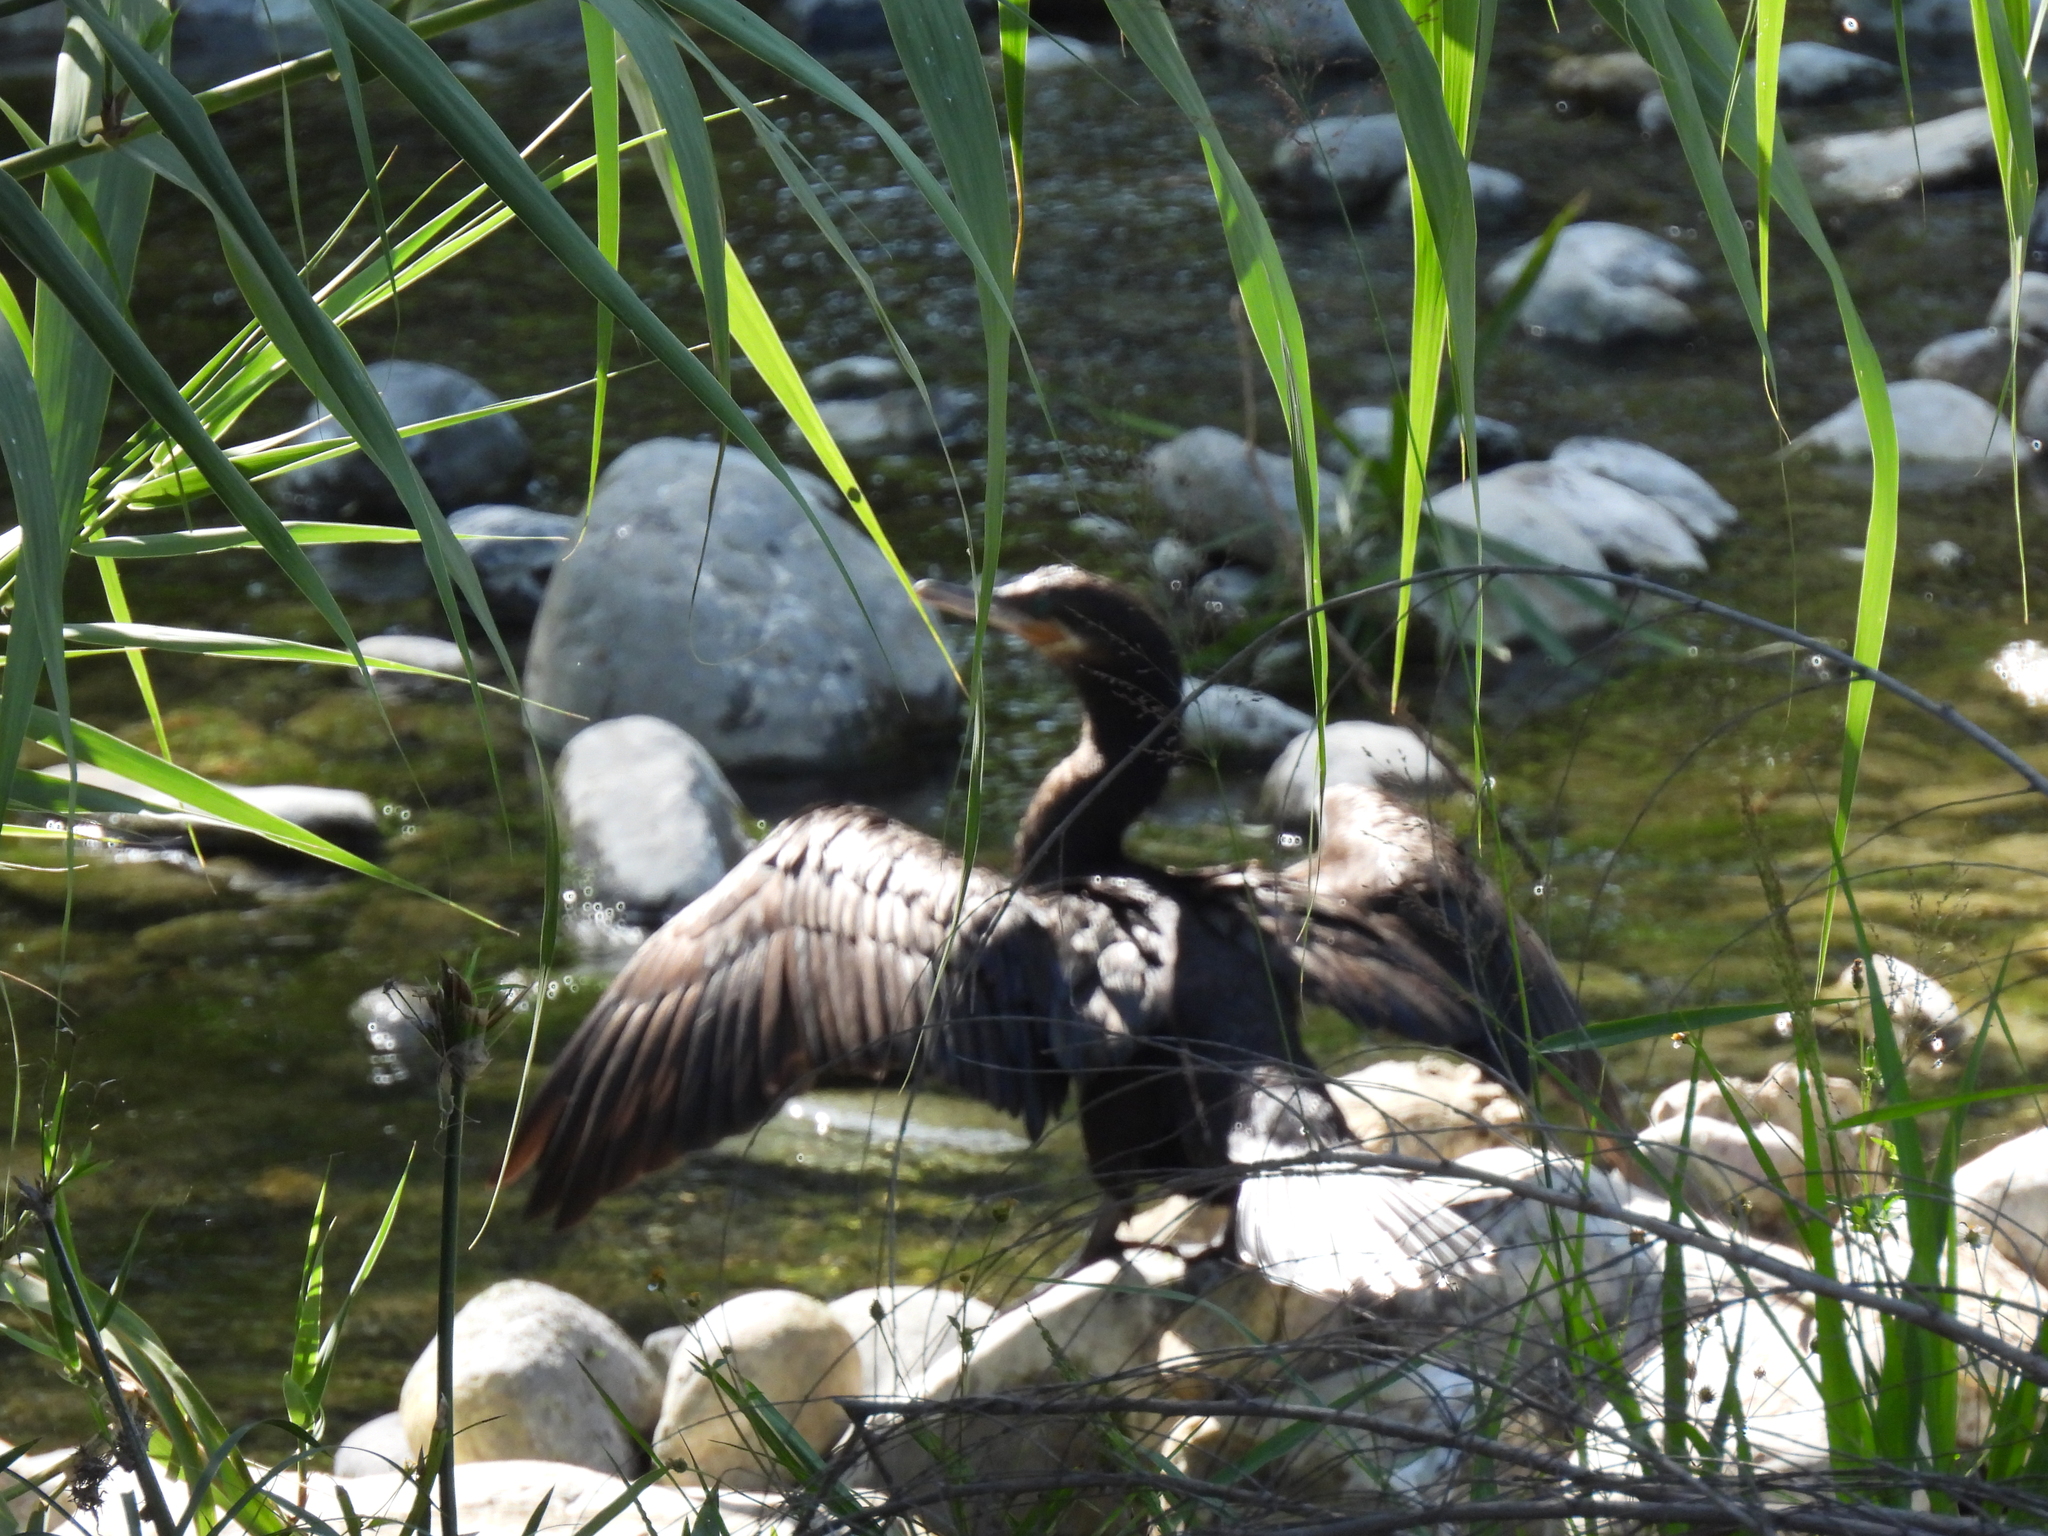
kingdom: Animalia
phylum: Chordata
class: Aves
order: Suliformes
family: Phalacrocoracidae
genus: Phalacrocorax
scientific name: Phalacrocorax brasilianus
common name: Neotropic cormorant
